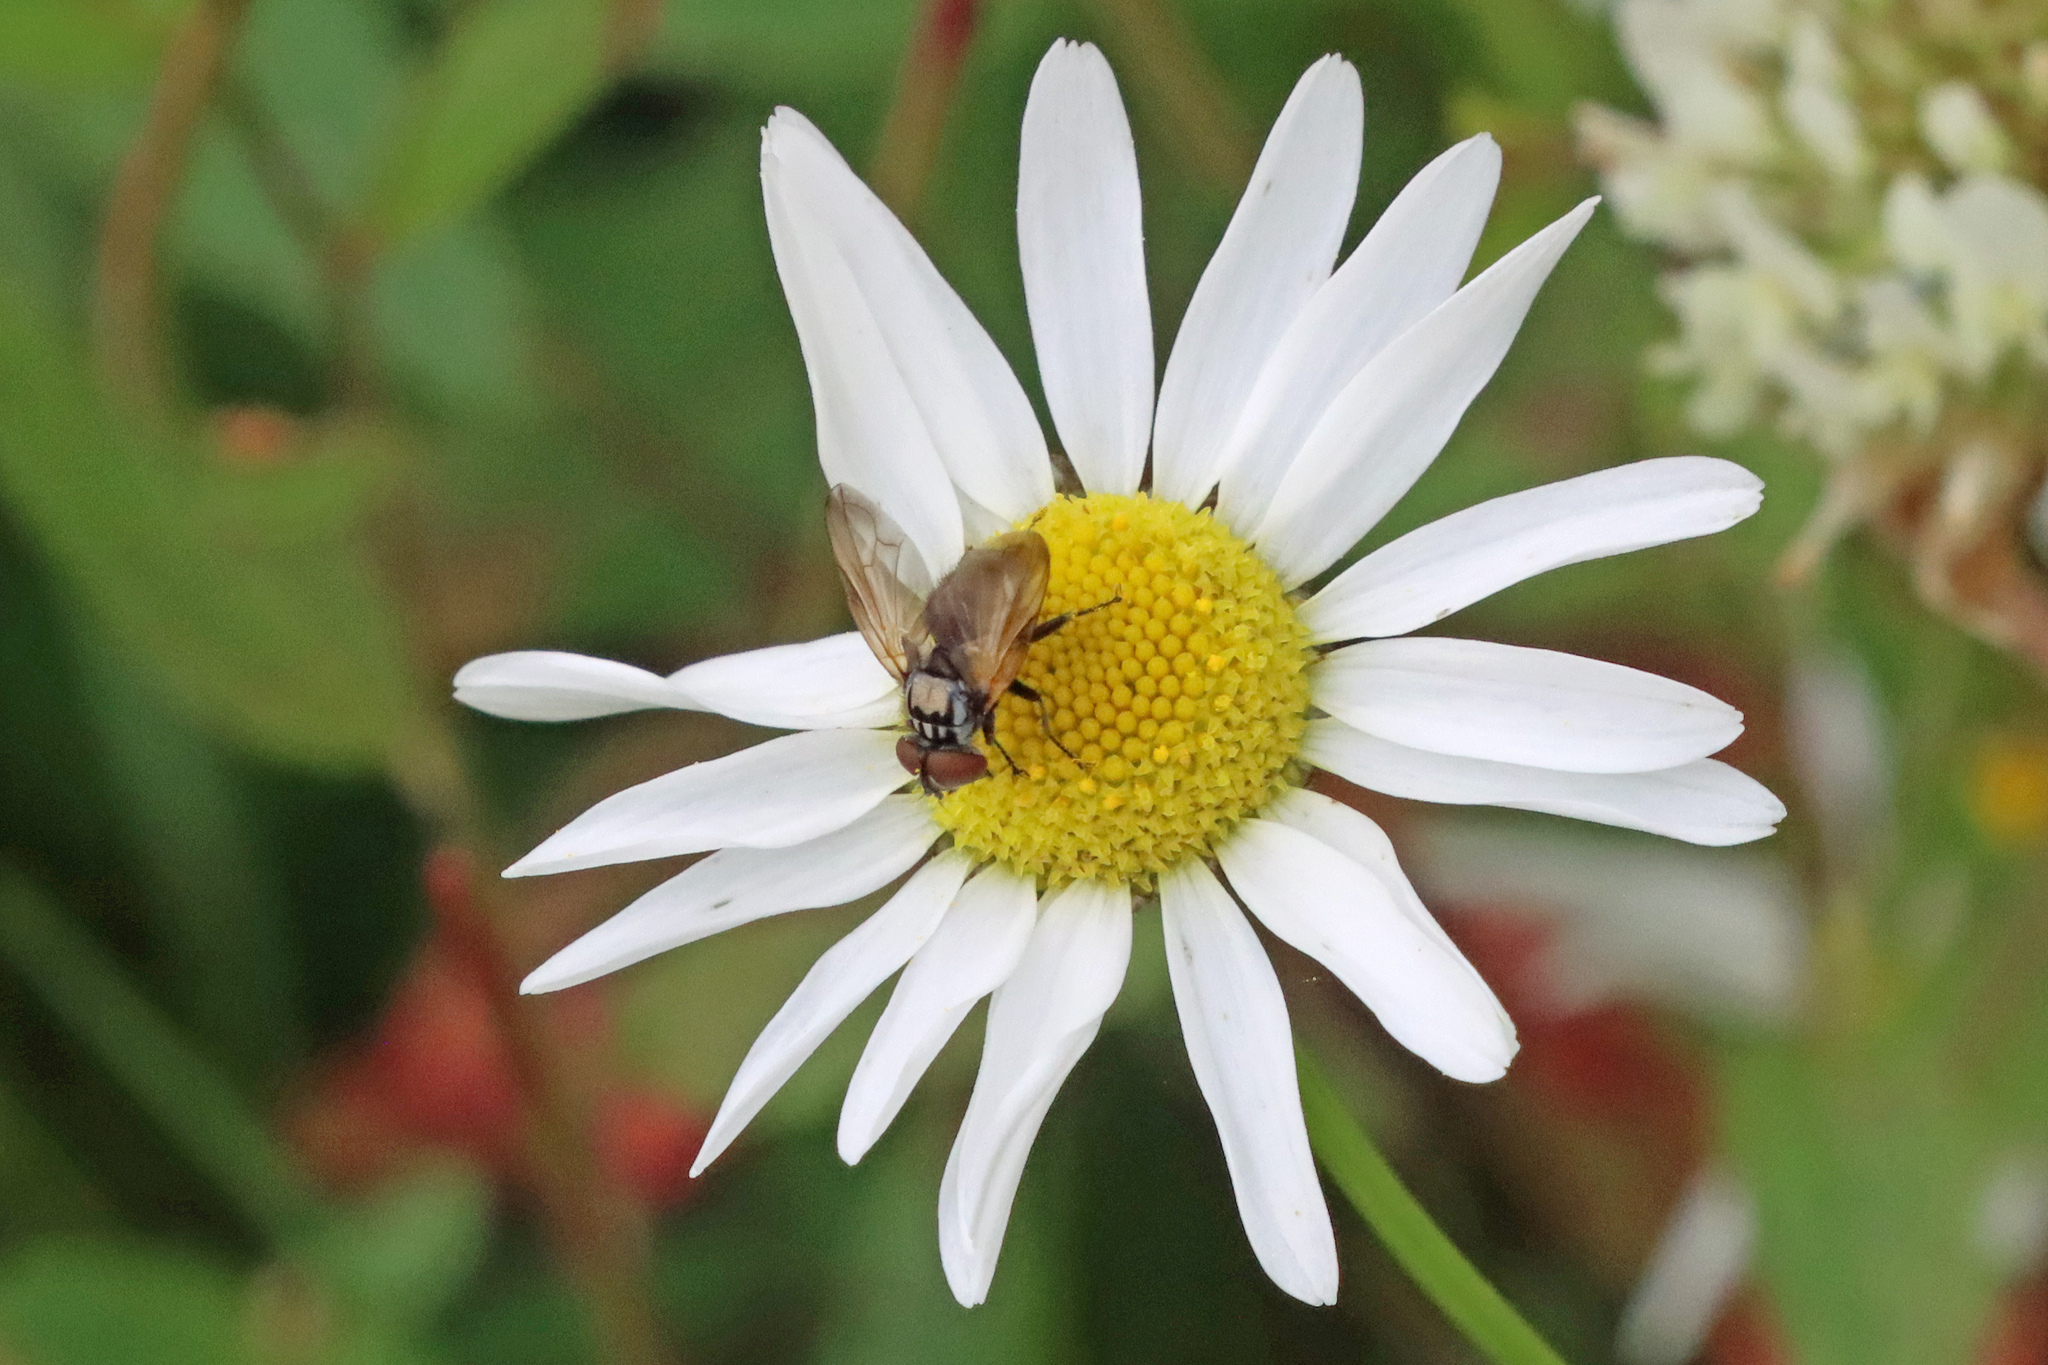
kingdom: Animalia
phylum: Arthropoda
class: Insecta
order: Diptera
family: Tachinidae
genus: Phasia
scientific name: Phasia obesa
